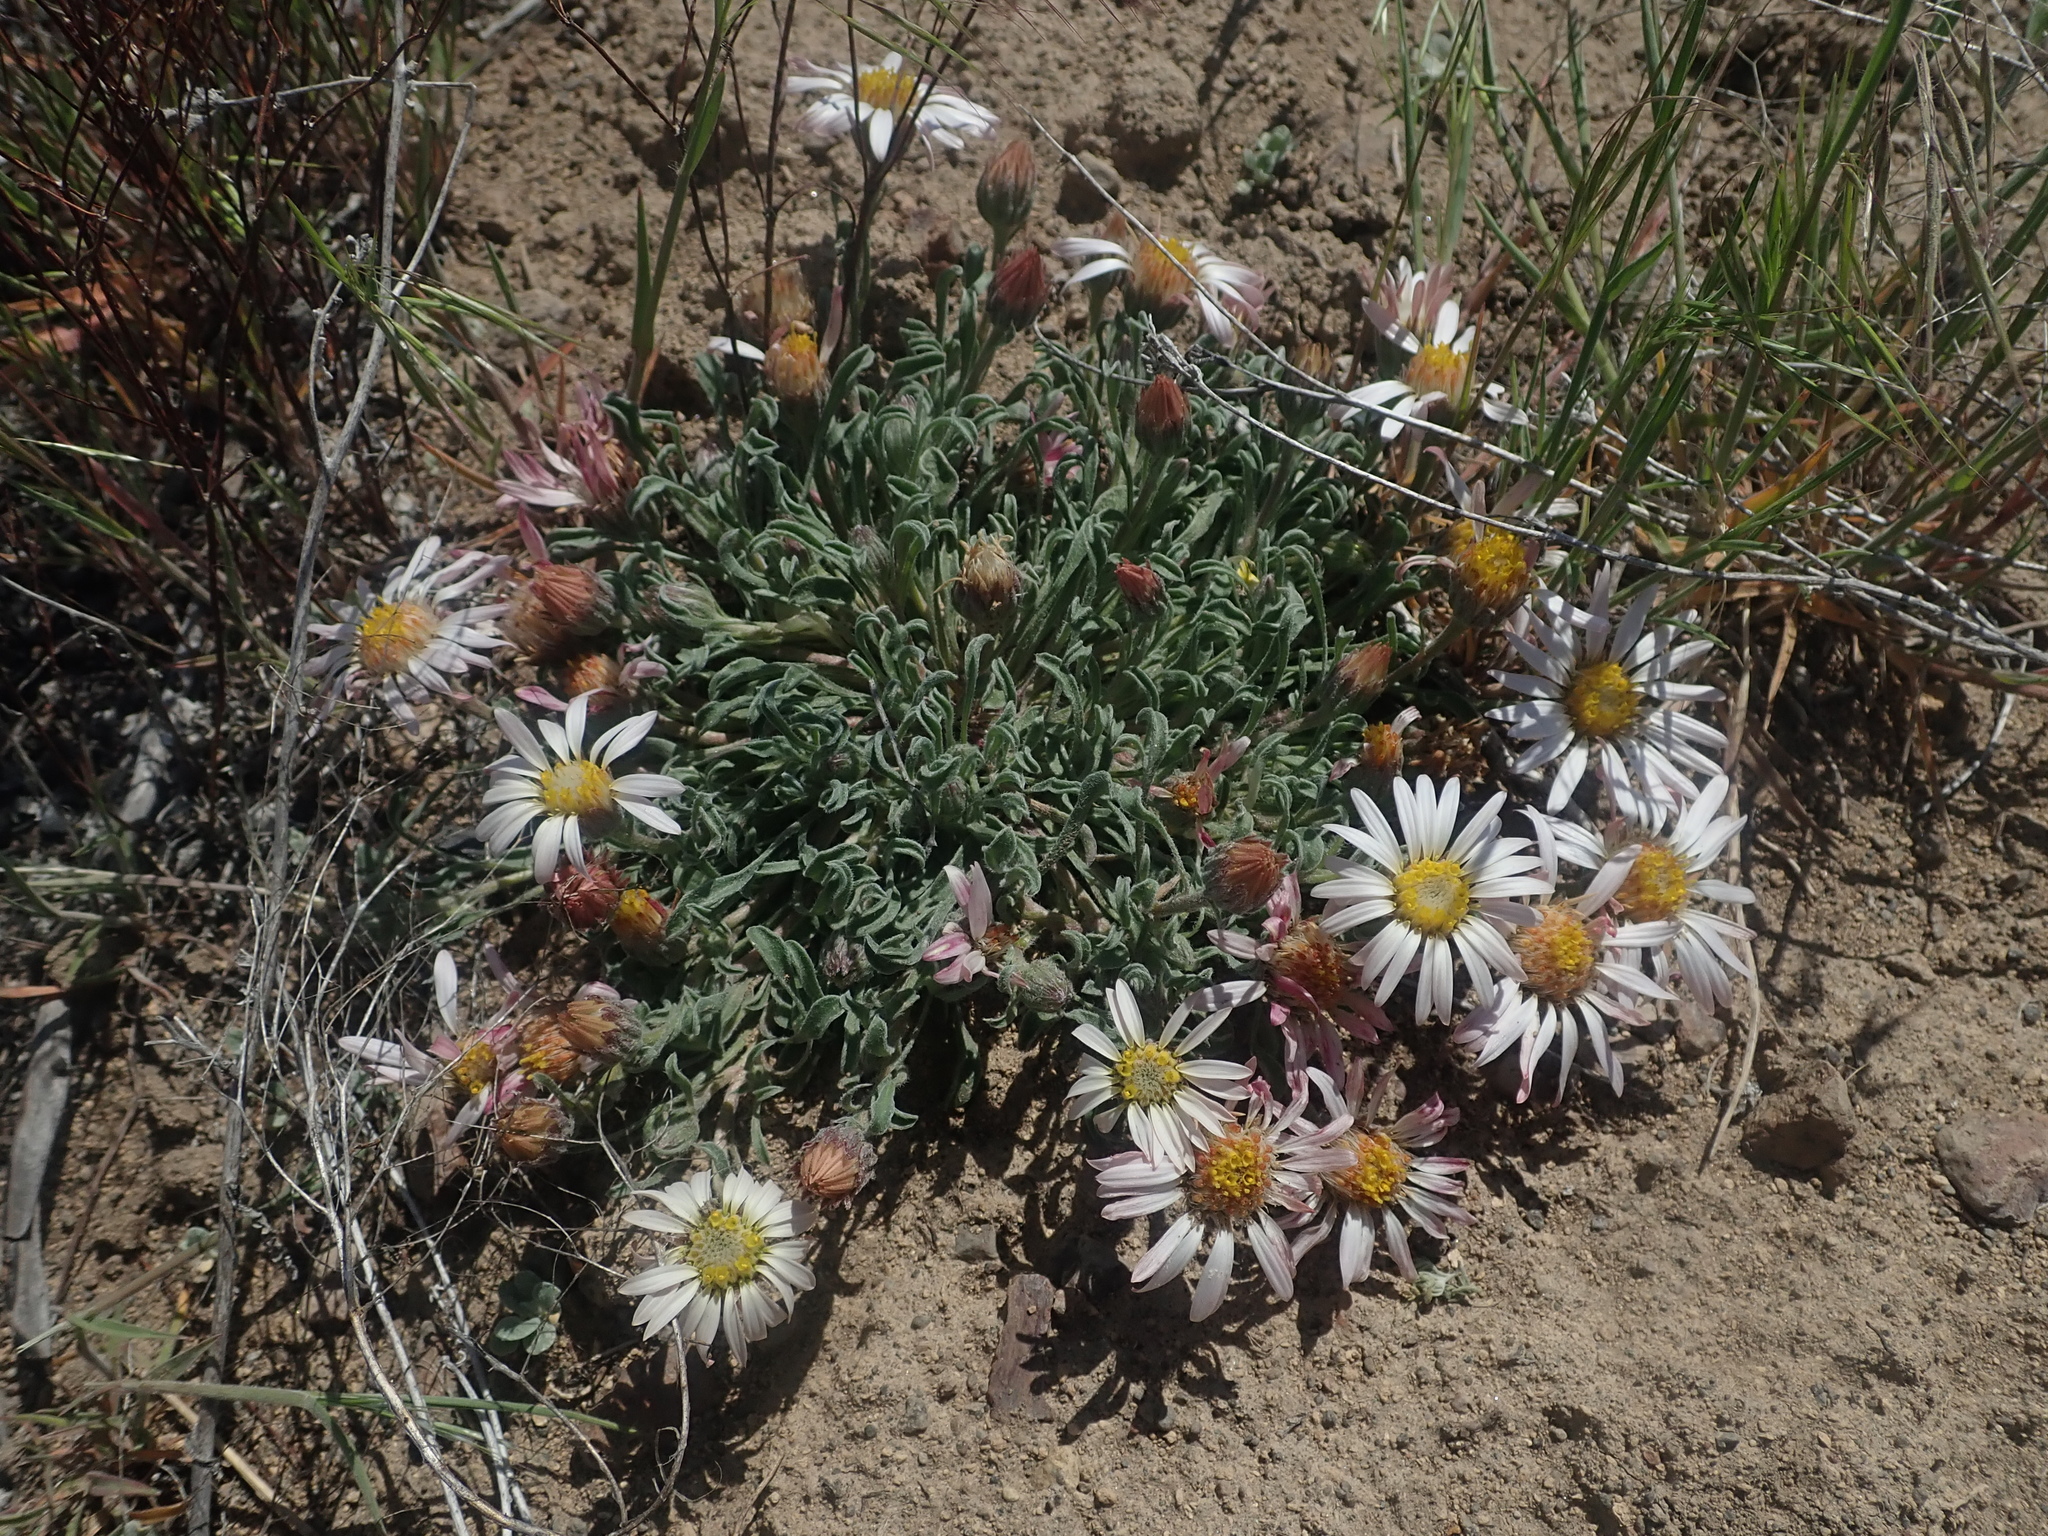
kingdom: Plantae
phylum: Tracheophyta
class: Magnoliopsida
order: Asterales
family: Asteraceae
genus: Townsendia
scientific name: Townsendia florifera
